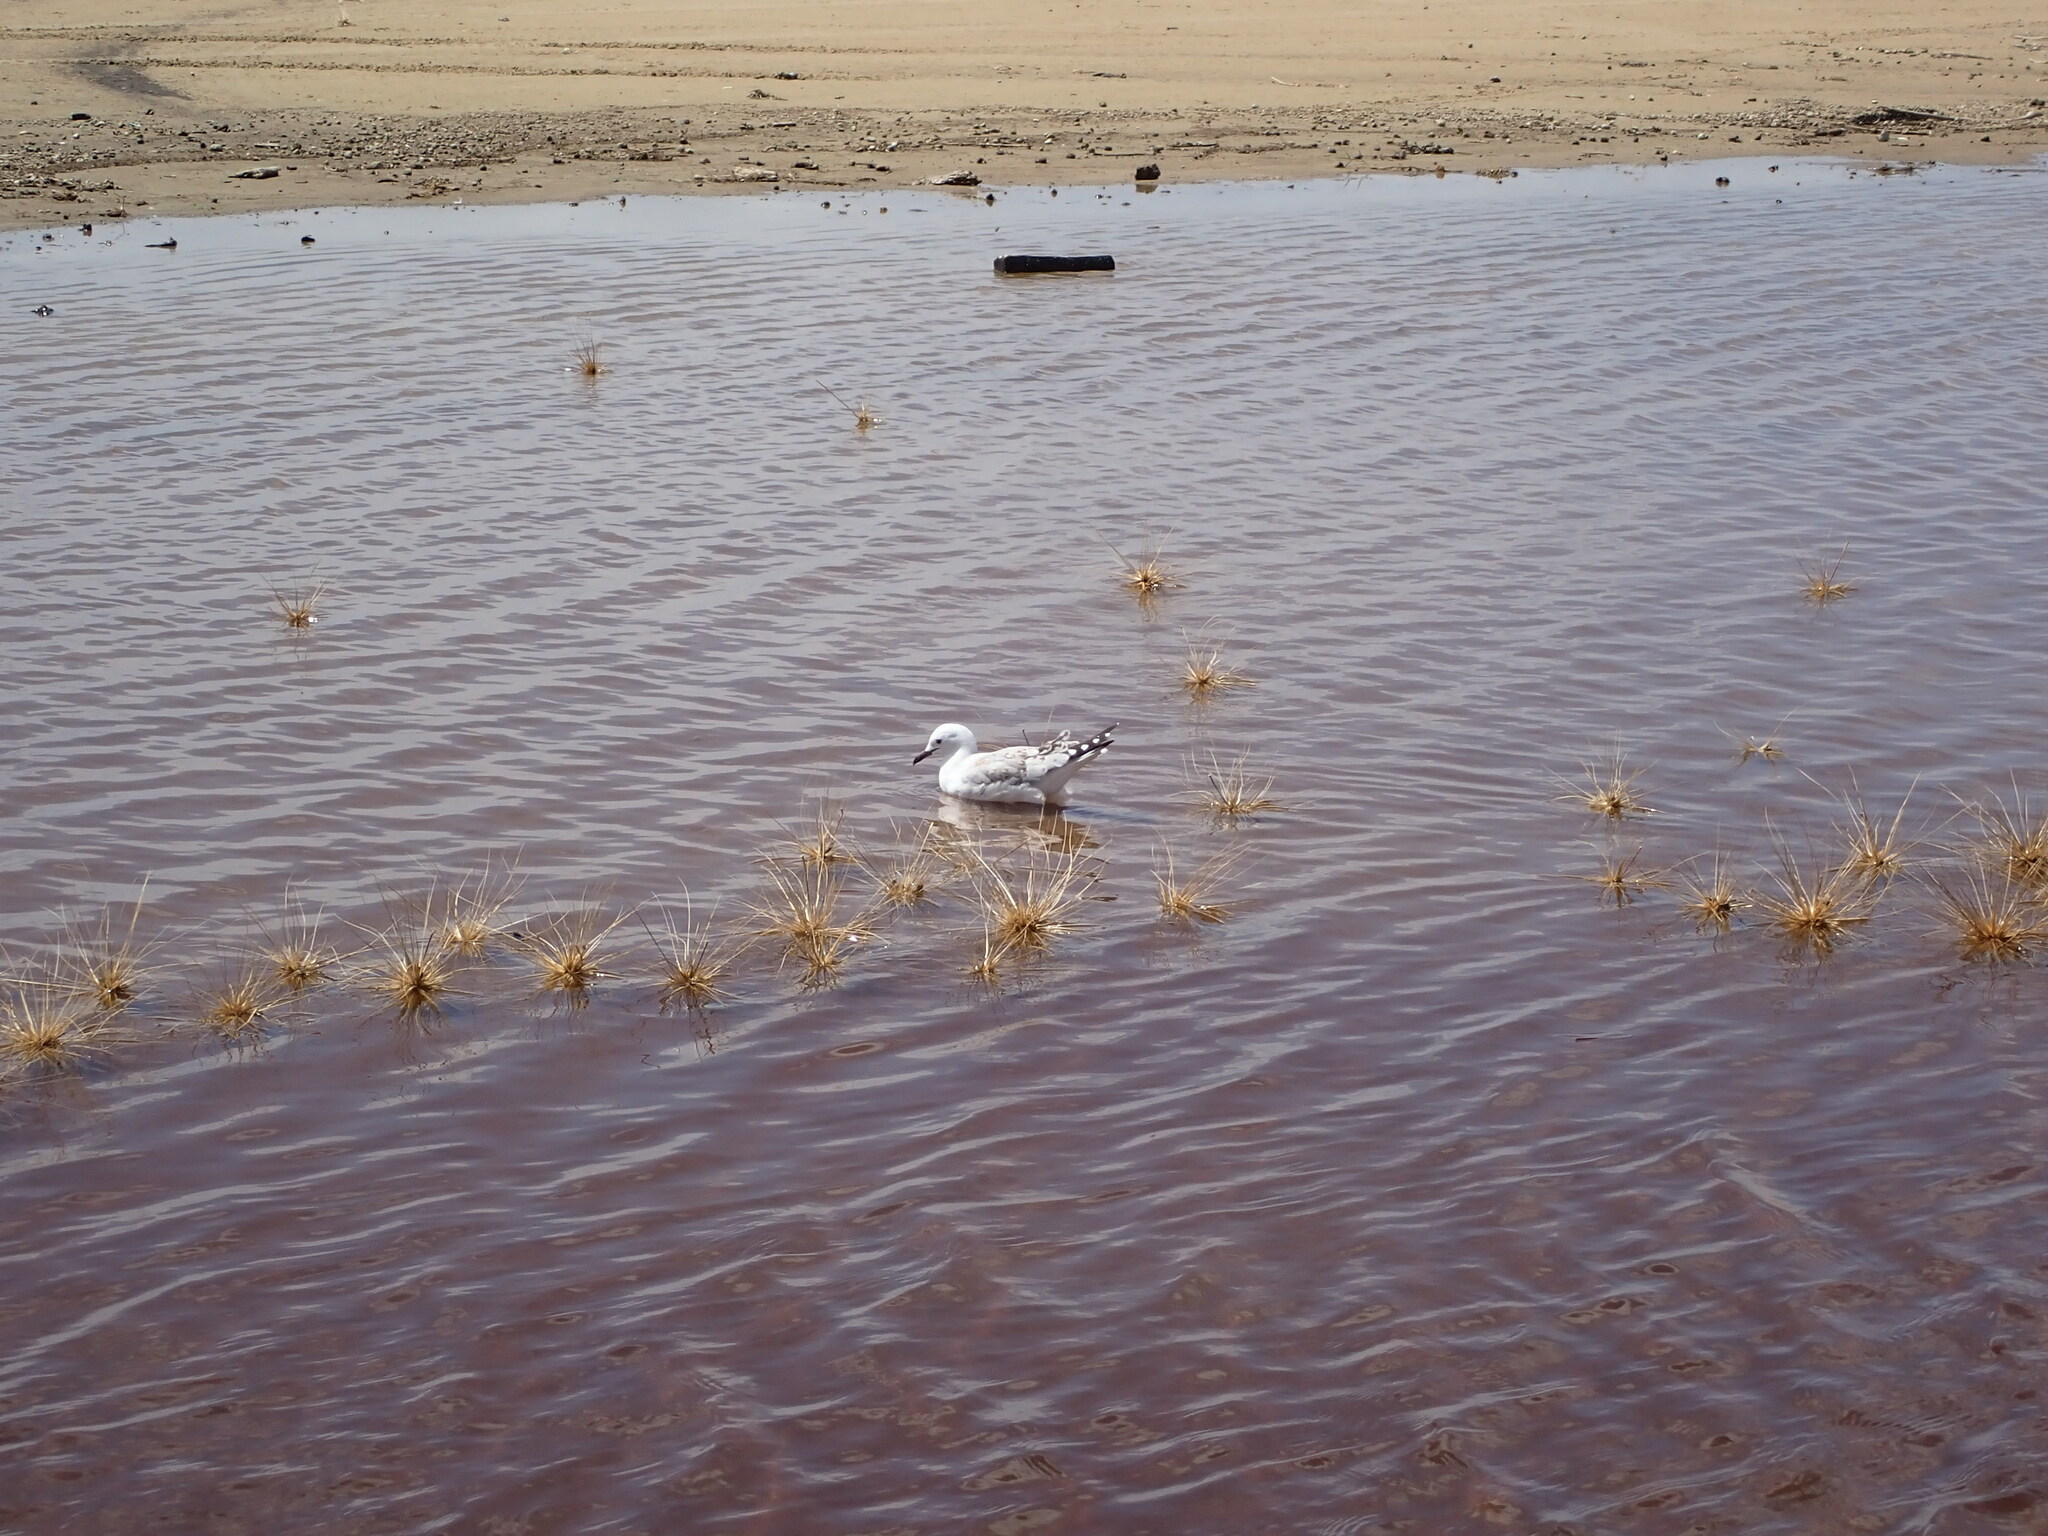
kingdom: Animalia
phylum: Chordata
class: Aves
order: Charadriiformes
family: Laridae
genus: Chroicocephalus
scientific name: Chroicocephalus novaehollandiae
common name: Silver gull
